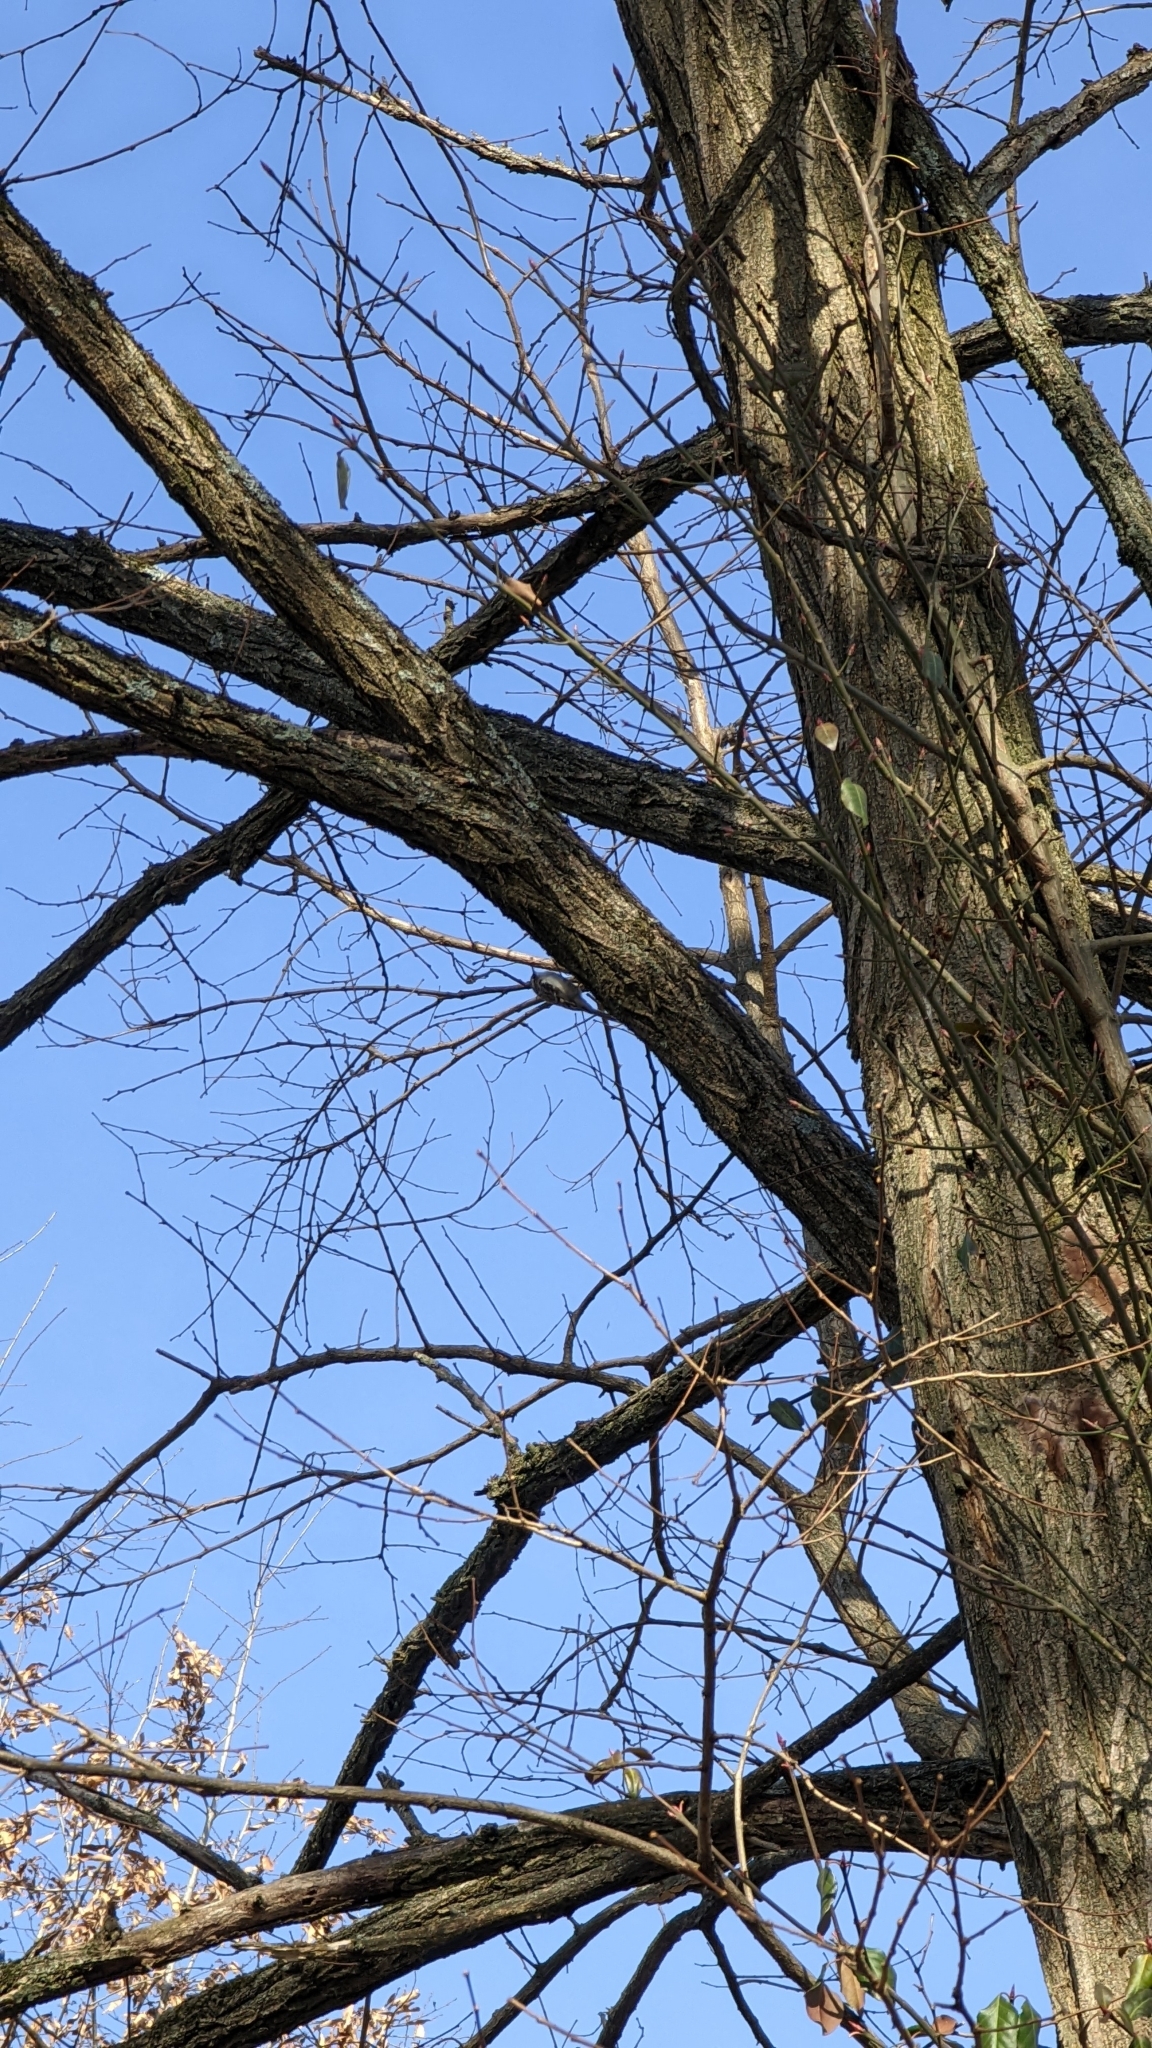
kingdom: Animalia
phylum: Chordata
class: Aves
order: Passeriformes
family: Certhiidae
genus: Certhia
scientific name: Certhia americana
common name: Brown creeper
